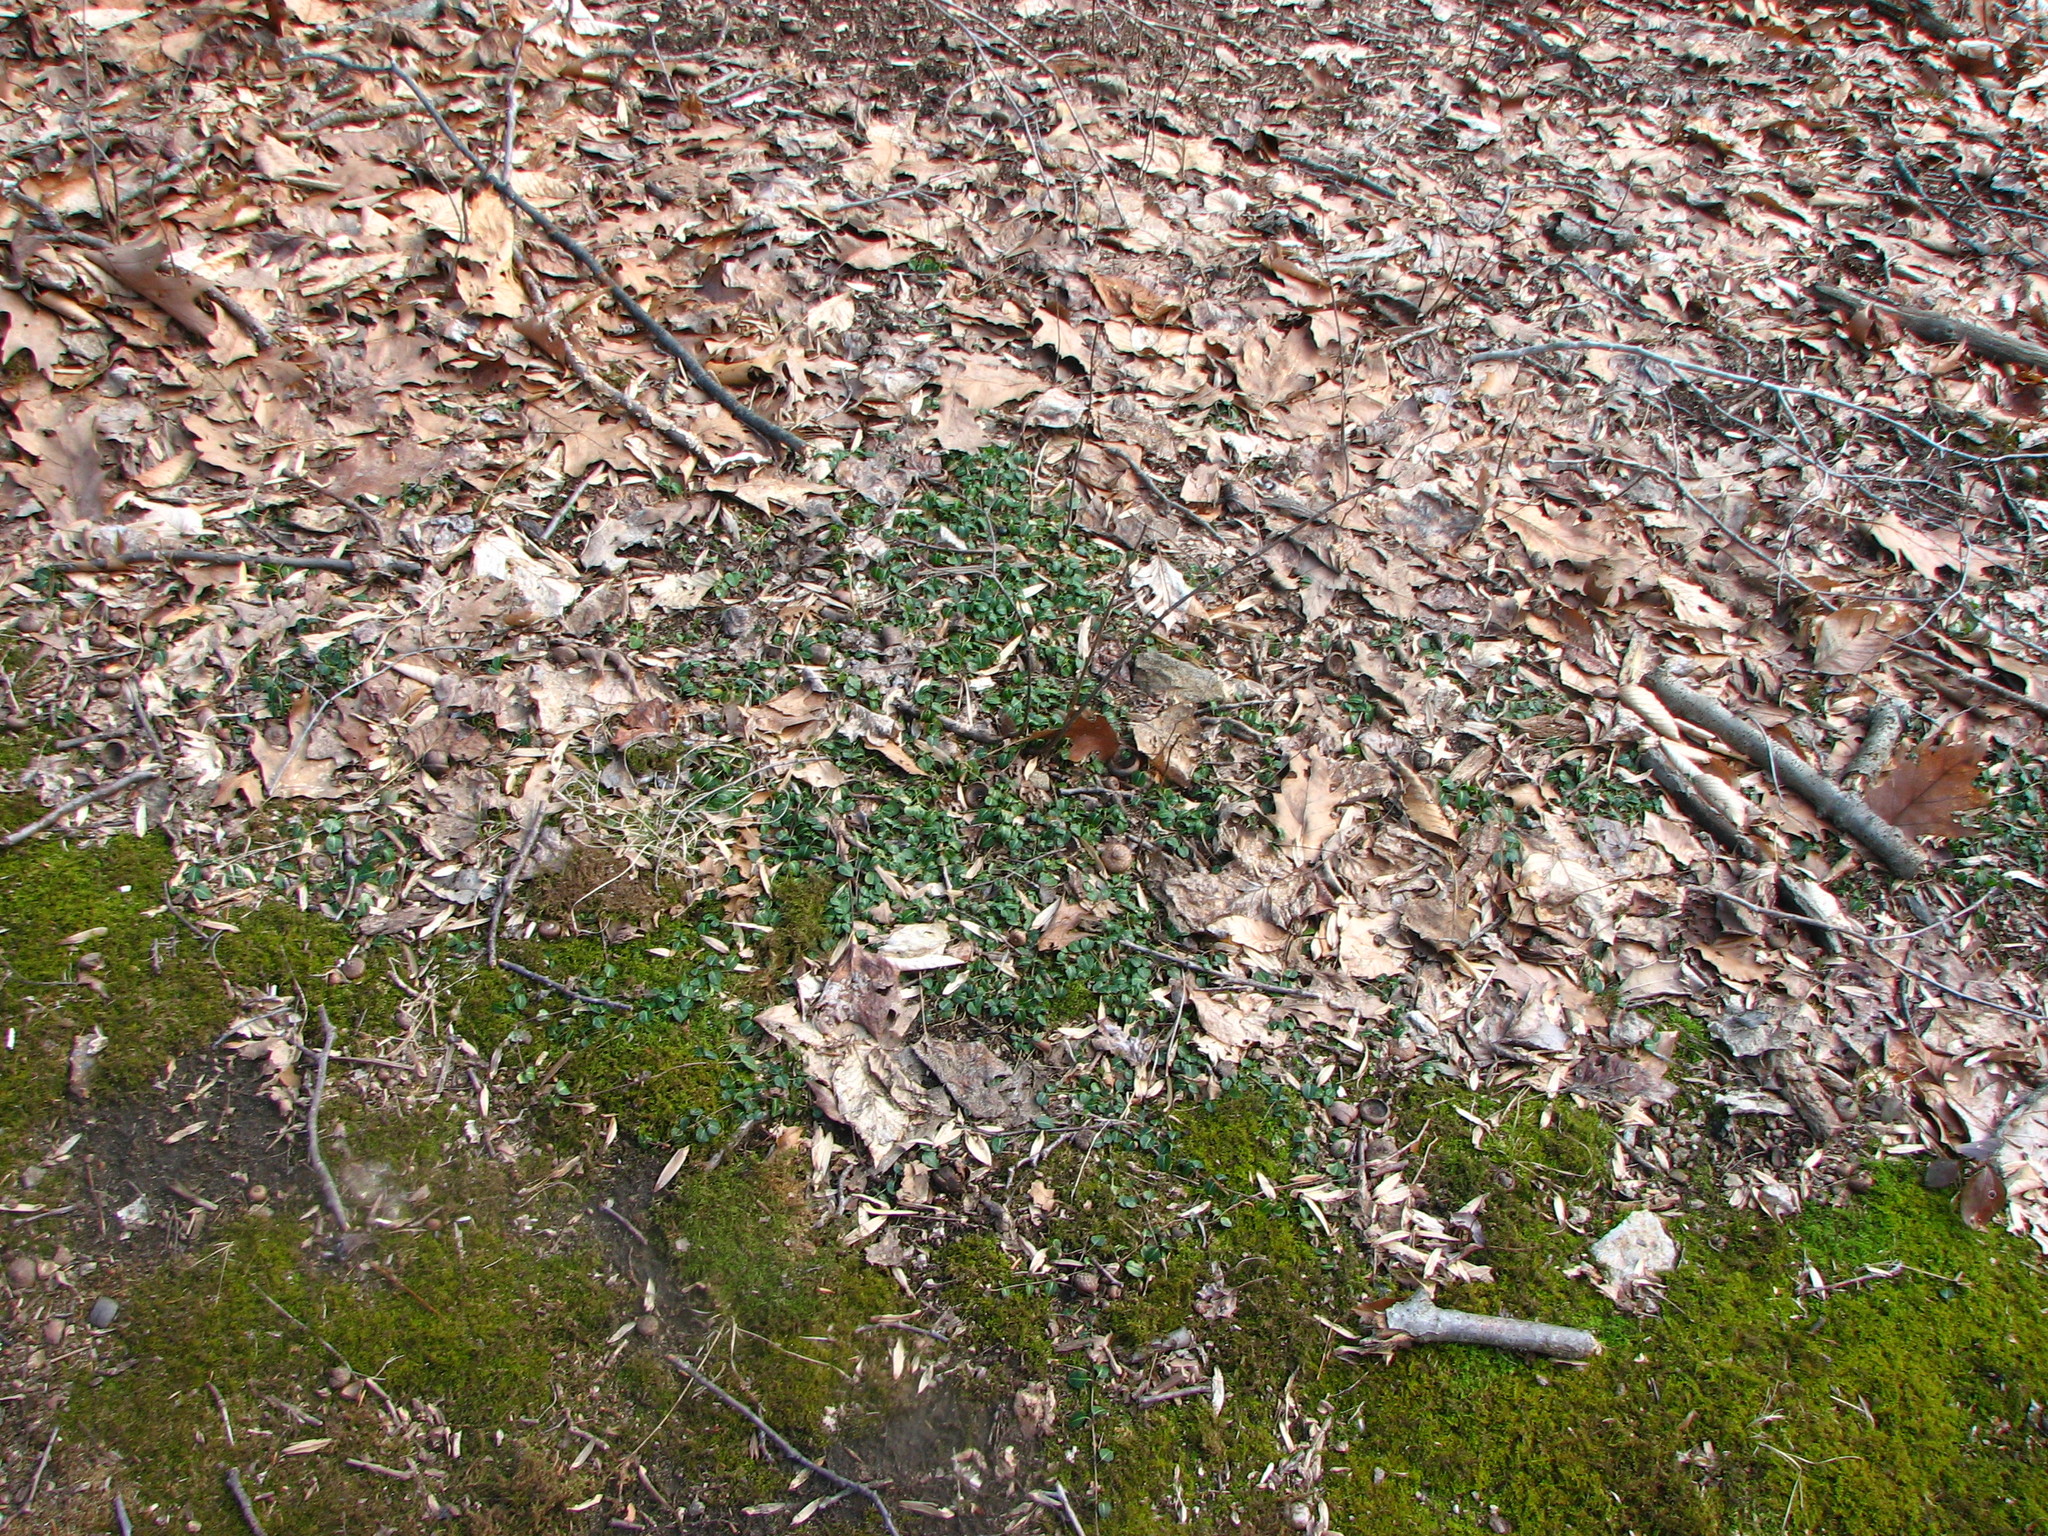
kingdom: Plantae
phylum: Tracheophyta
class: Magnoliopsida
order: Gentianales
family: Rubiaceae
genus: Mitchella
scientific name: Mitchella repens
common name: Partridge-berry
